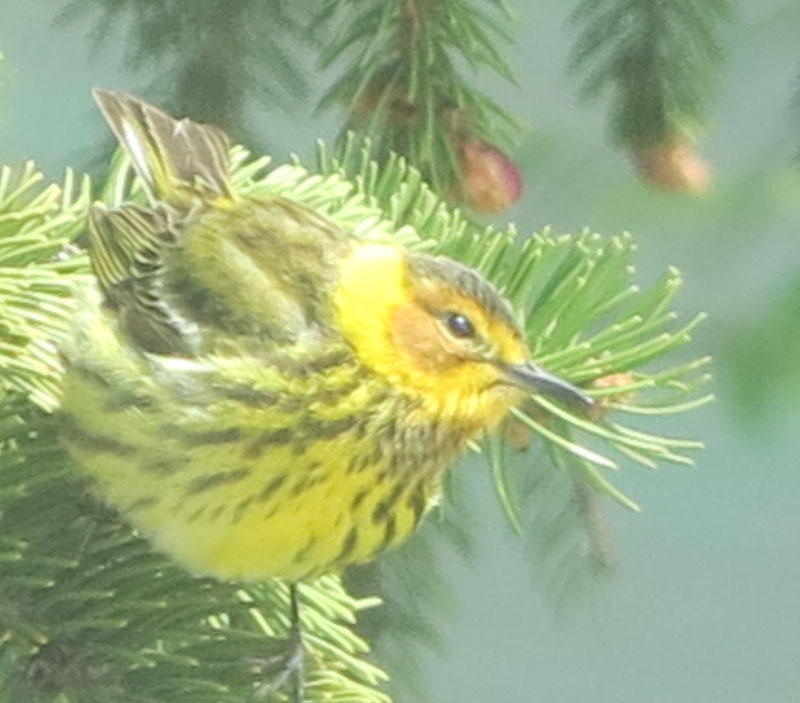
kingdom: Animalia
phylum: Chordata
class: Aves
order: Passeriformes
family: Parulidae
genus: Setophaga
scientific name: Setophaga tigrina
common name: Cape may warbler
